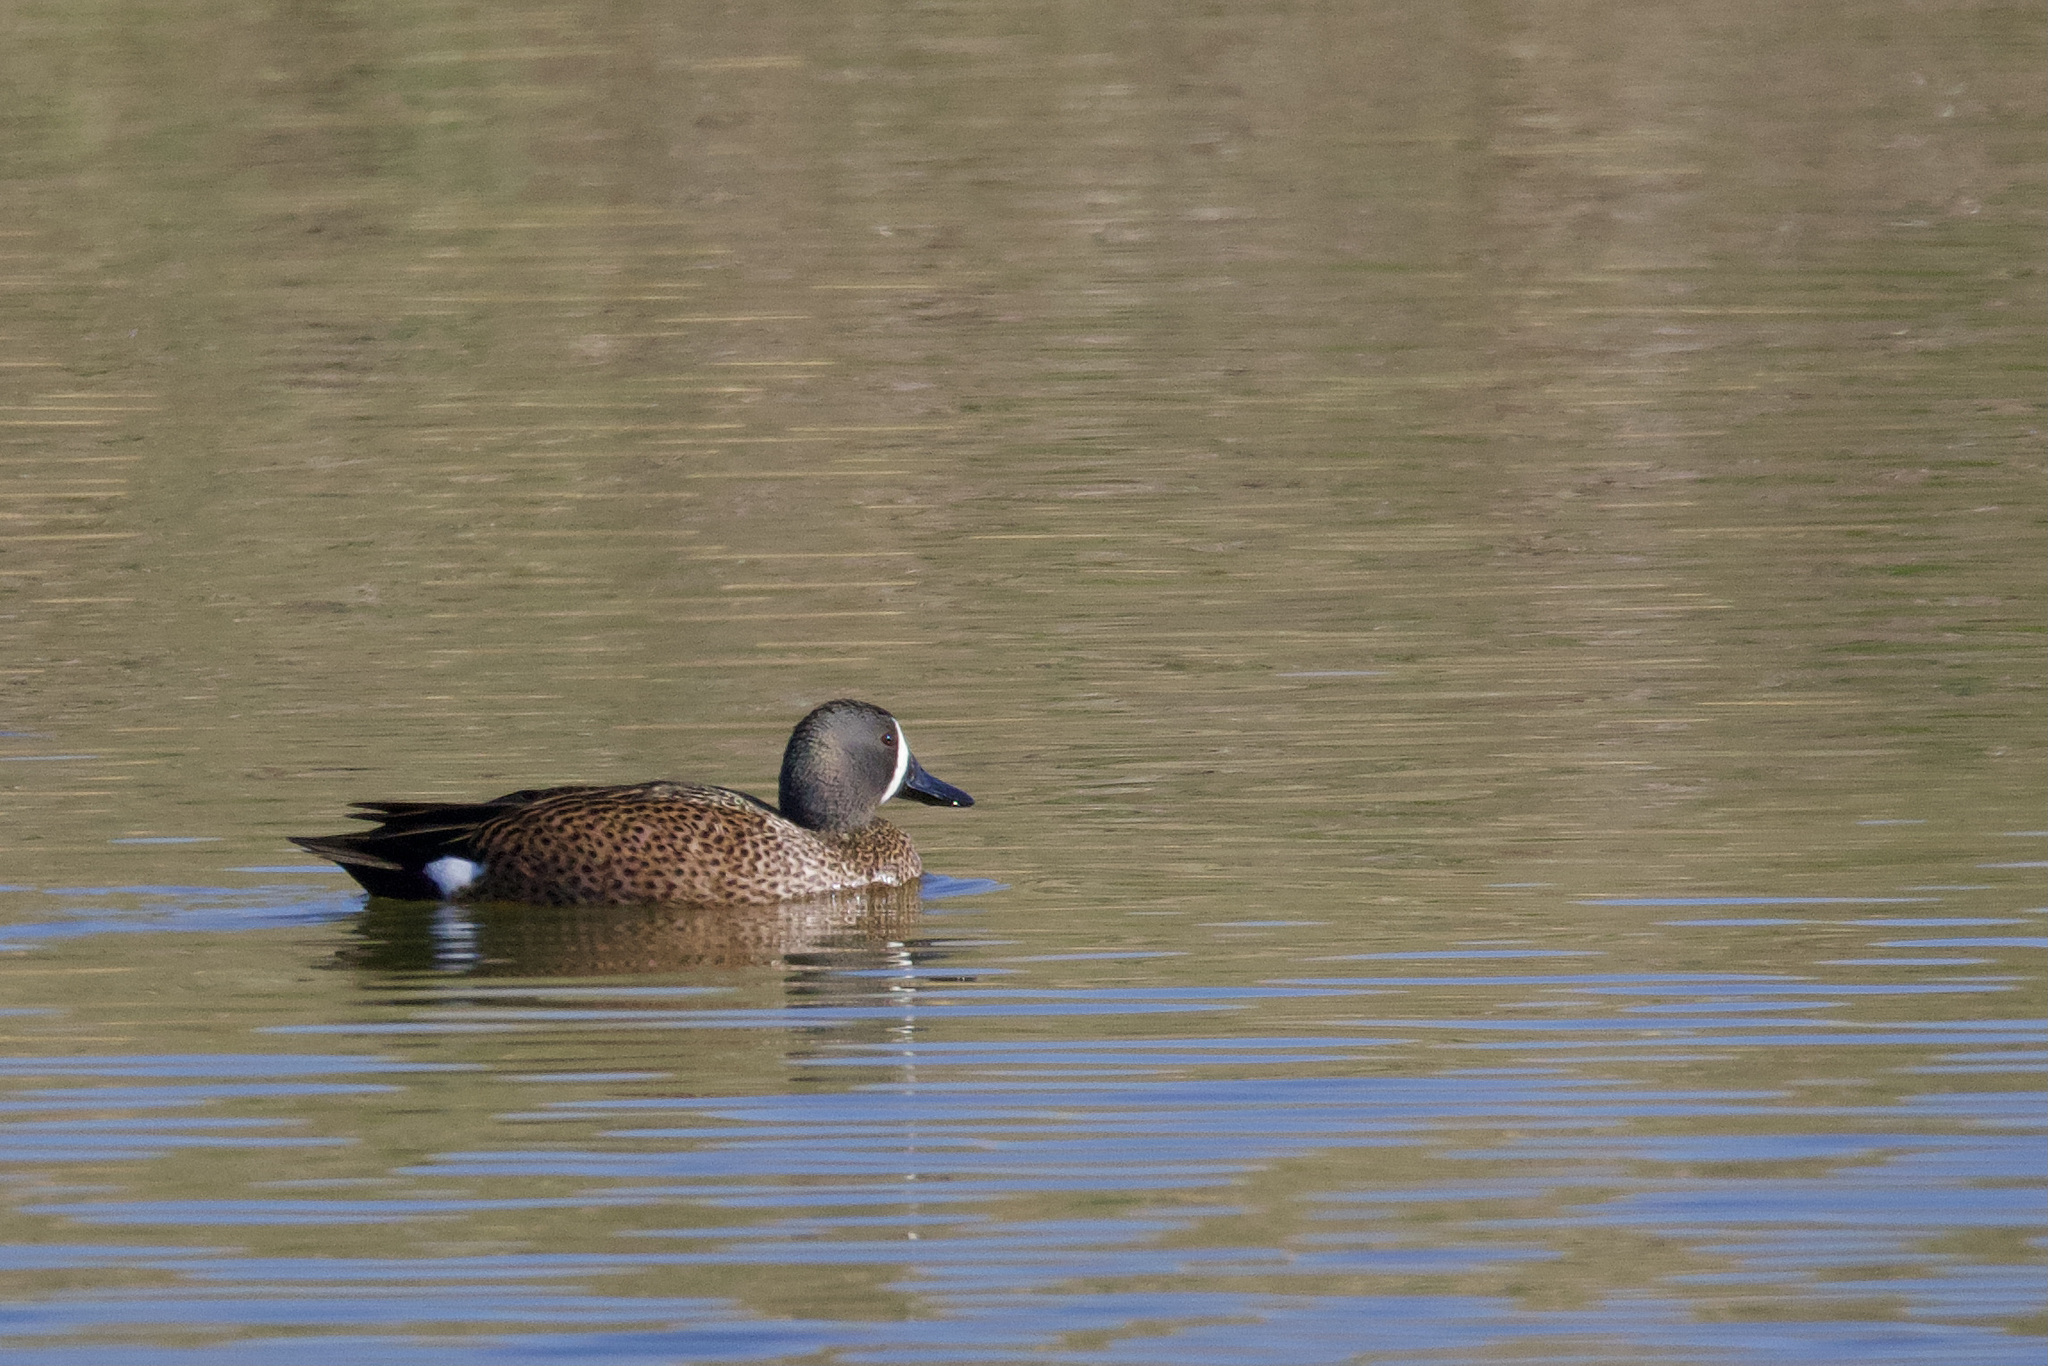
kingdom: Animalia
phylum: Chordata
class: Aves
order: Anseriformes
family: Anatidae
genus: Spatula
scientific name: Spatula discors
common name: Blue-winged teal
